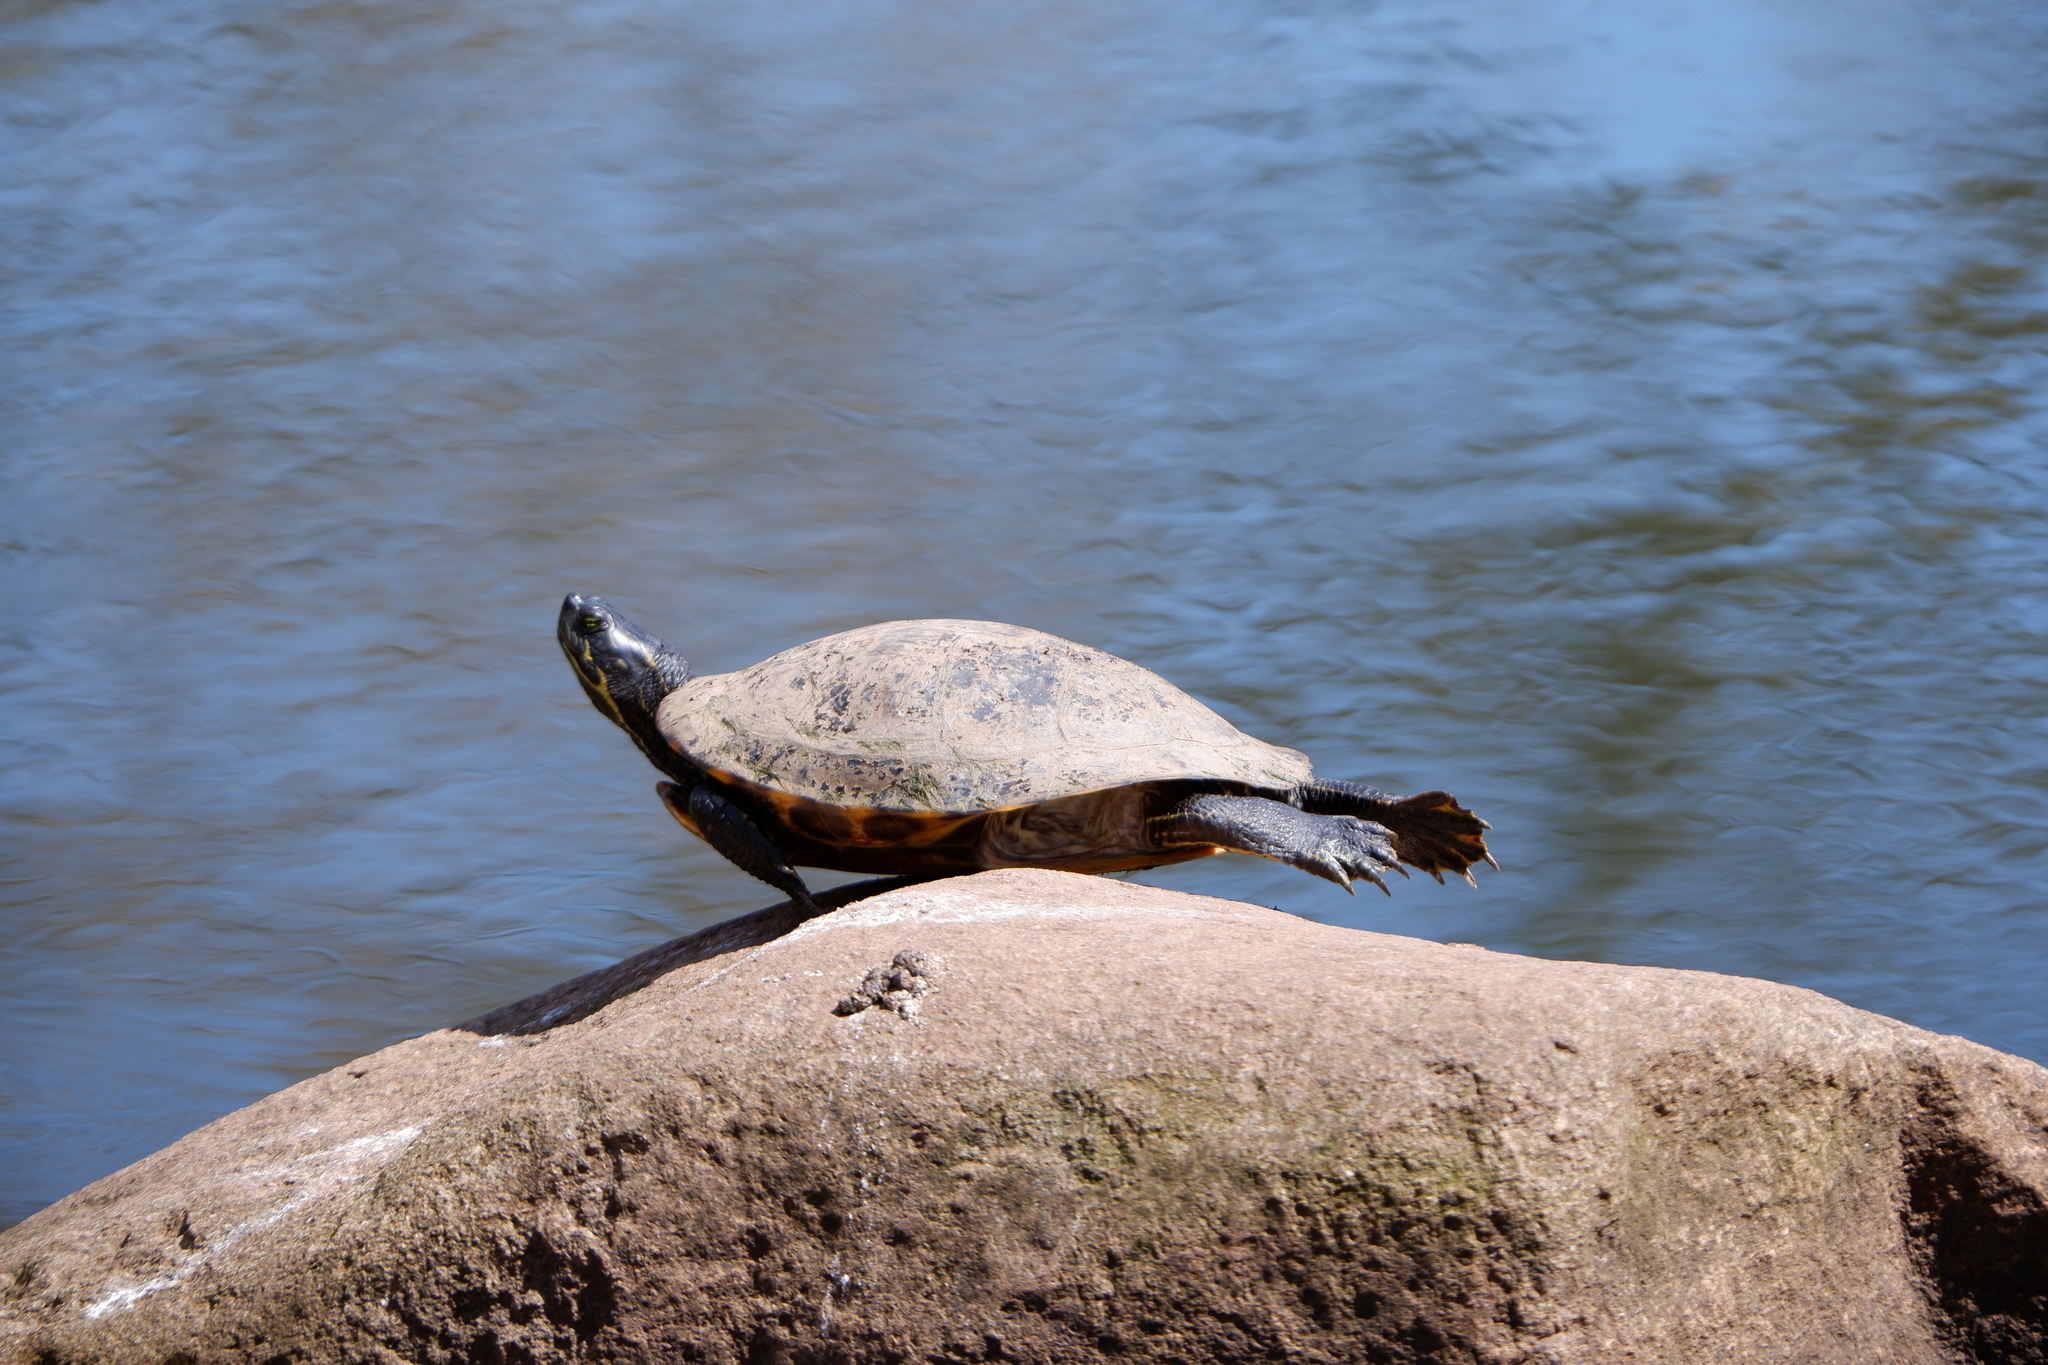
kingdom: Animalia
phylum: Chordata
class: Testudines
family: Emydidae
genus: Trachemys
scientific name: Trachemys scripta
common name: Slider
